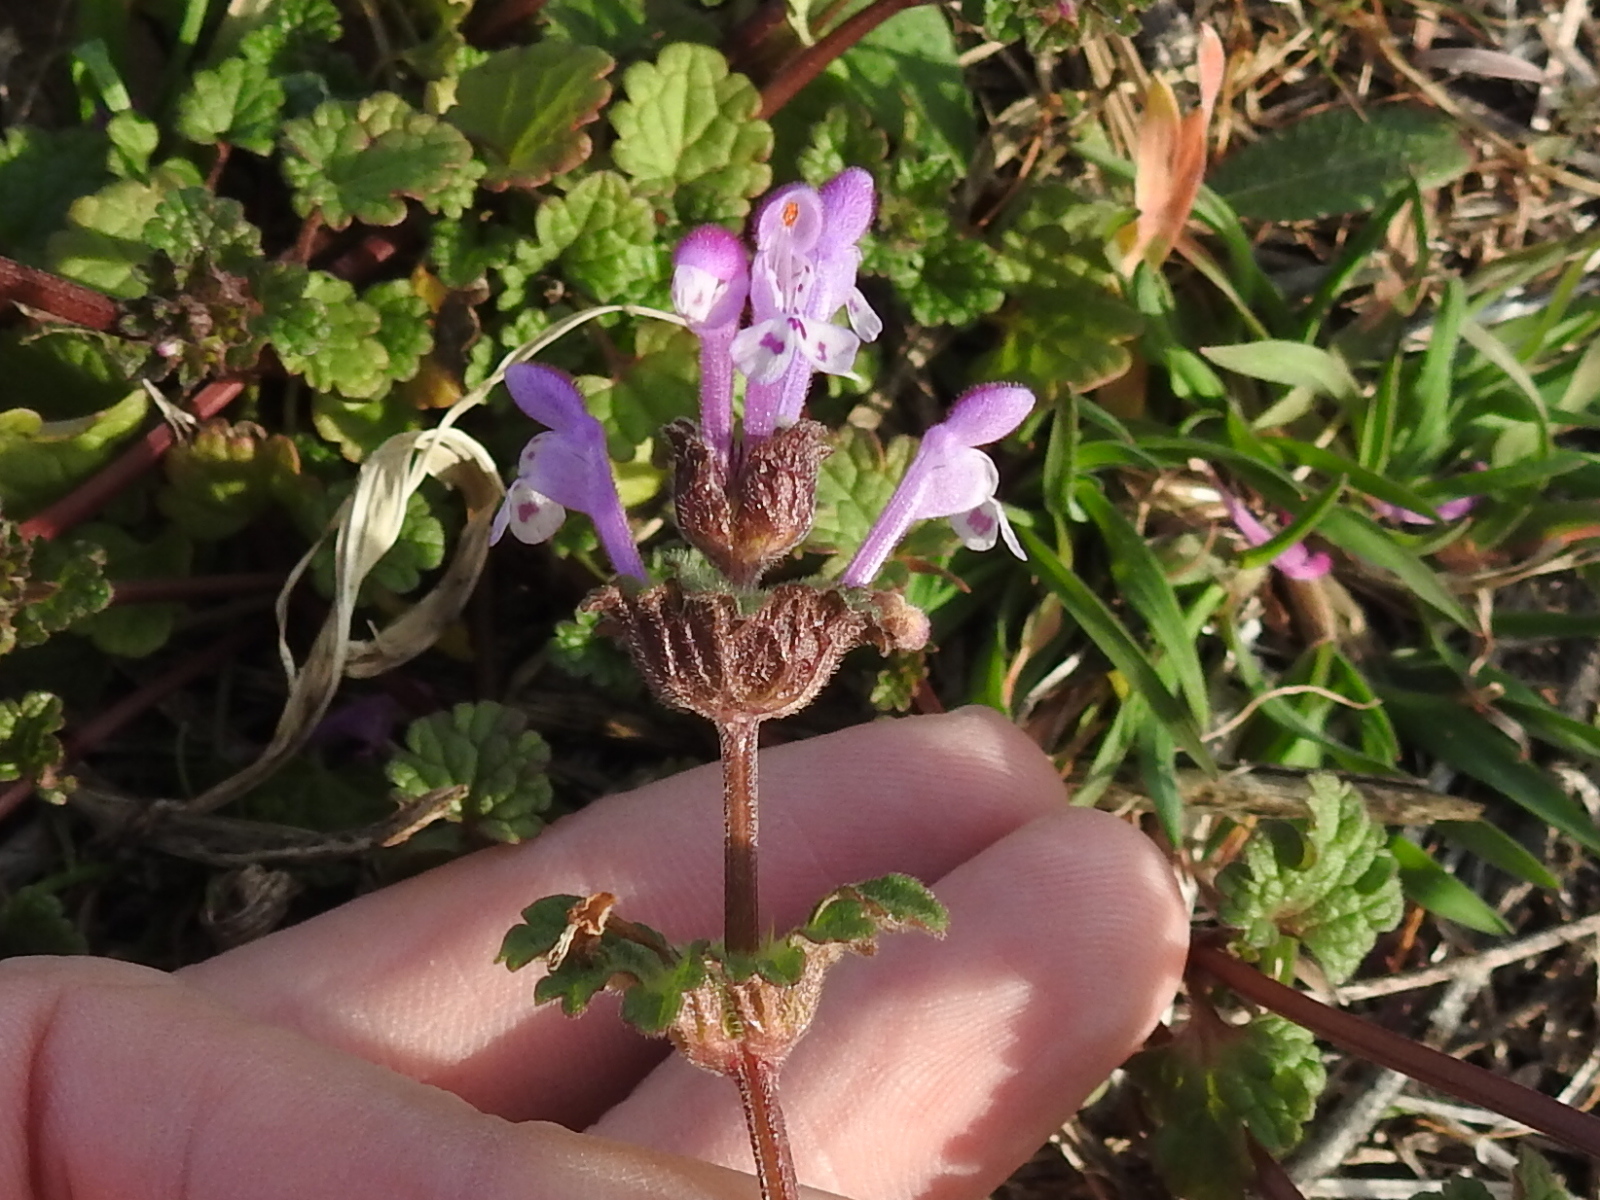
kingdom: Plantae
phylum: Tracheophyta
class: Magnoliopsida
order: Lamiales
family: Lamiaceae
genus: Lamium
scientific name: Lamium amplexicaule
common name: Henbit dead-nettle
